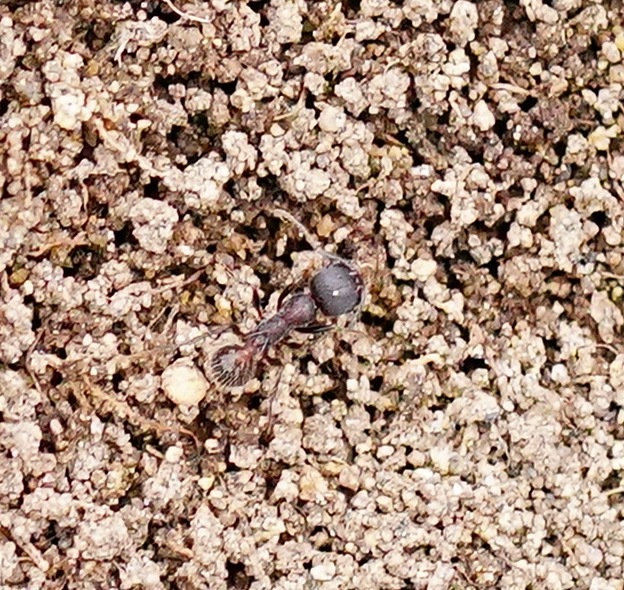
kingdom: Animalia
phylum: Arthropoda
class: Insecta
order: Hymenoptera
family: Formicidae
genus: Veromessor
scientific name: Veromessor andrei
